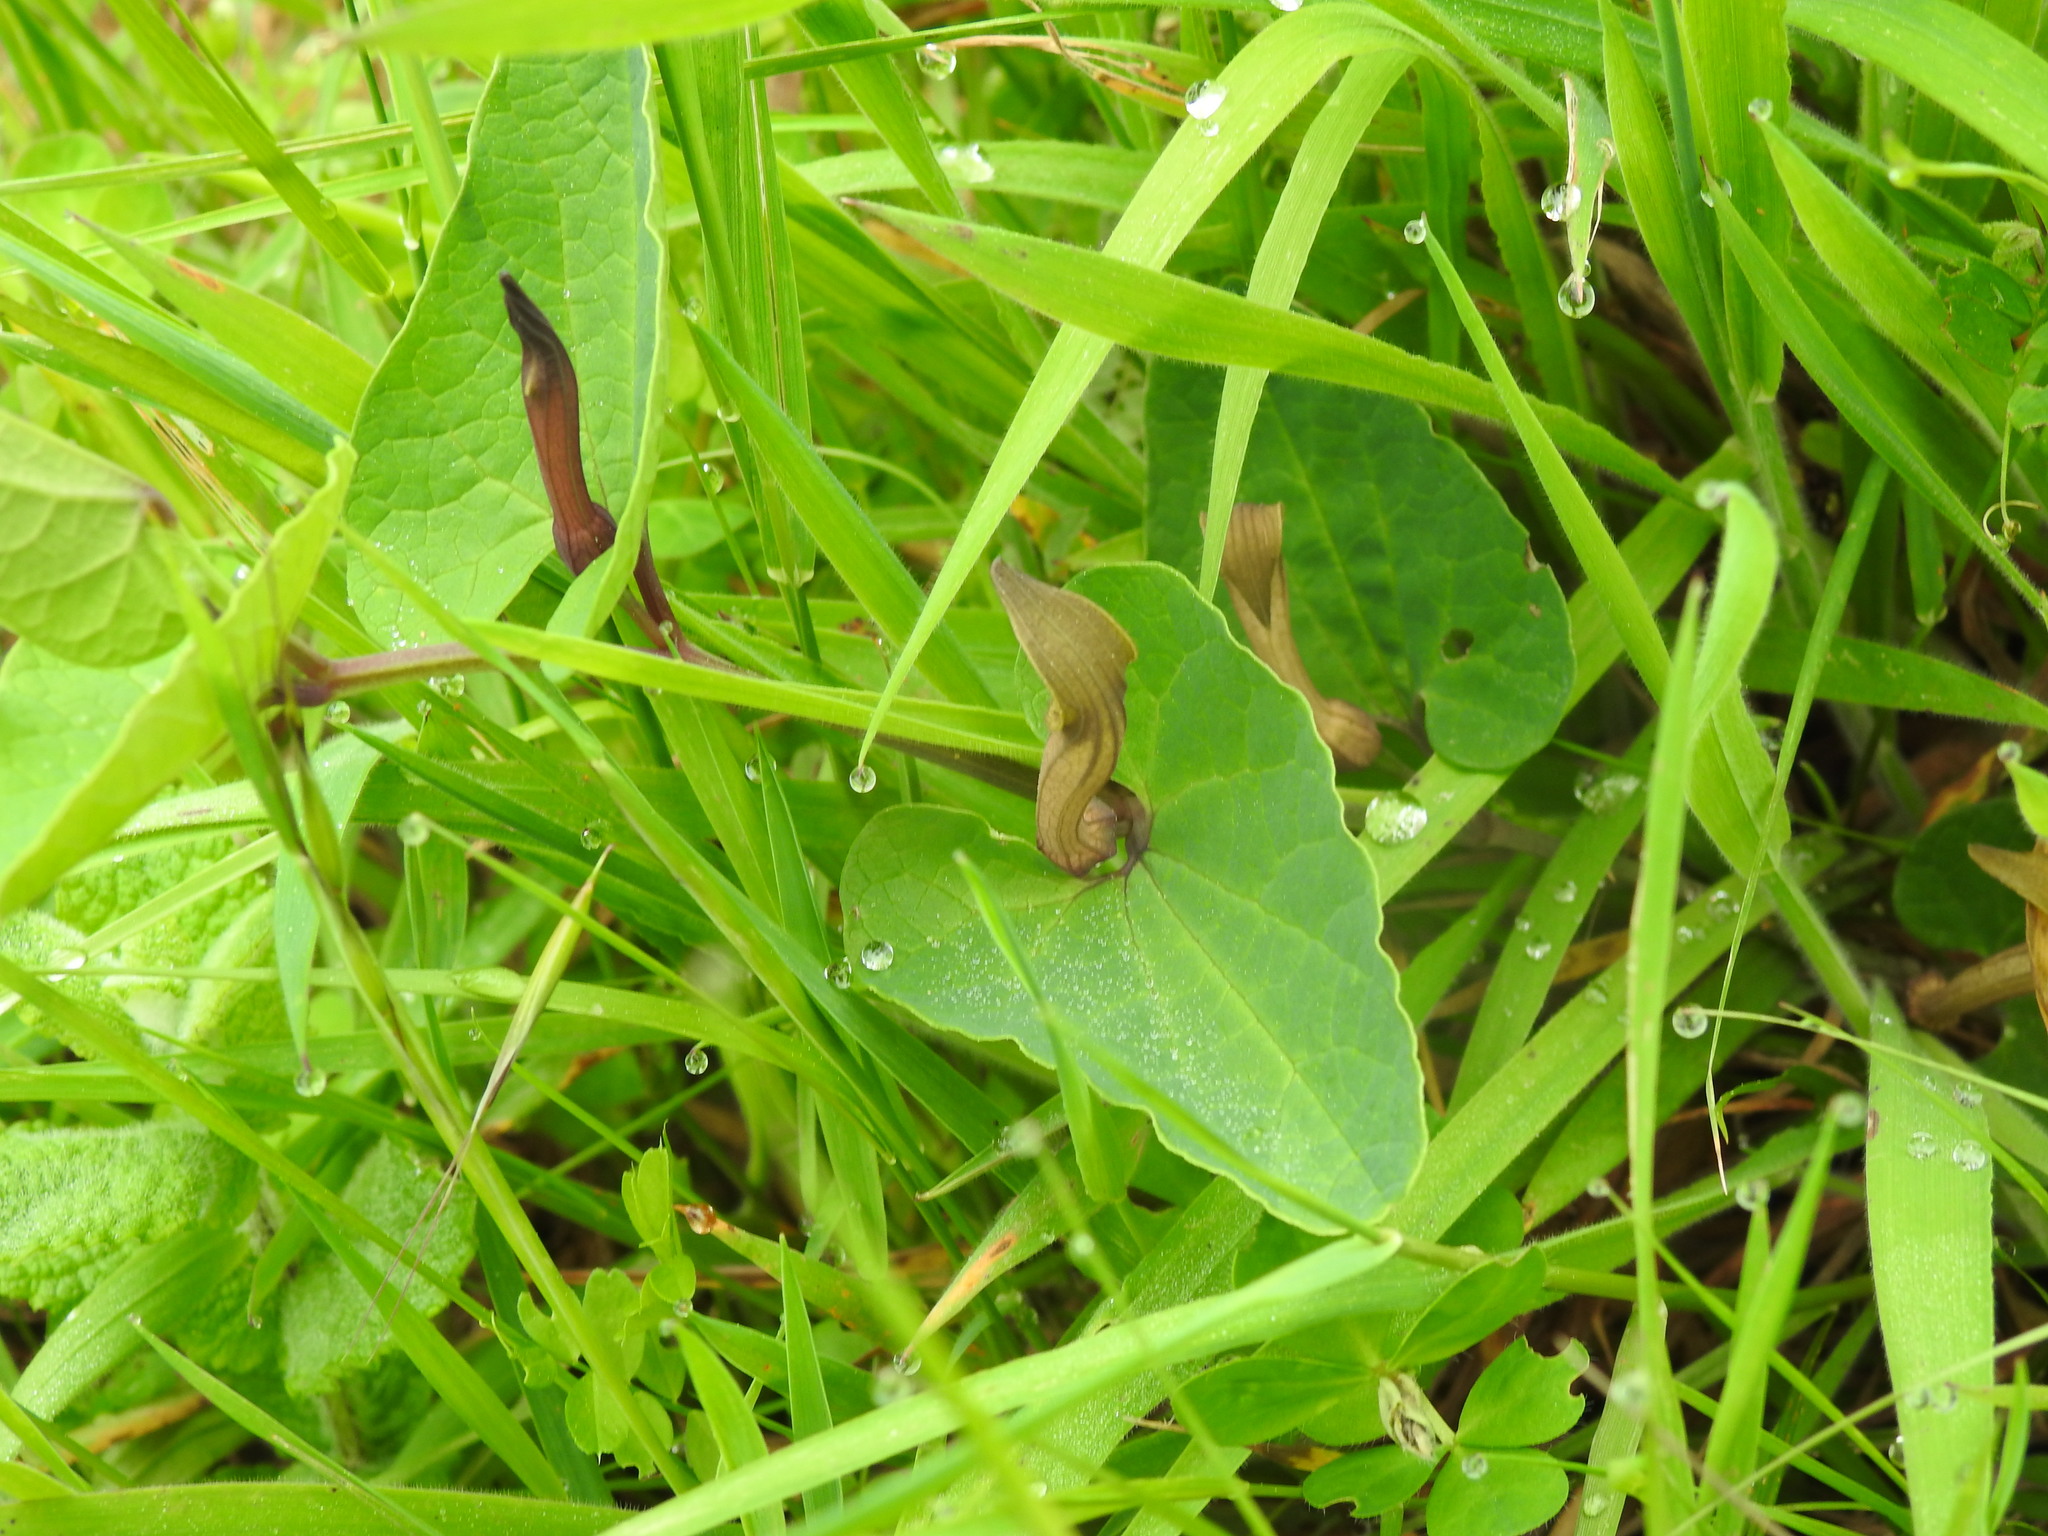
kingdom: Plantae
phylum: Tracheophyta
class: Magnoliopsida
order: Piperales
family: Aristolochiaceae
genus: Aristolochia
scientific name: Aristolochia paucinervis
